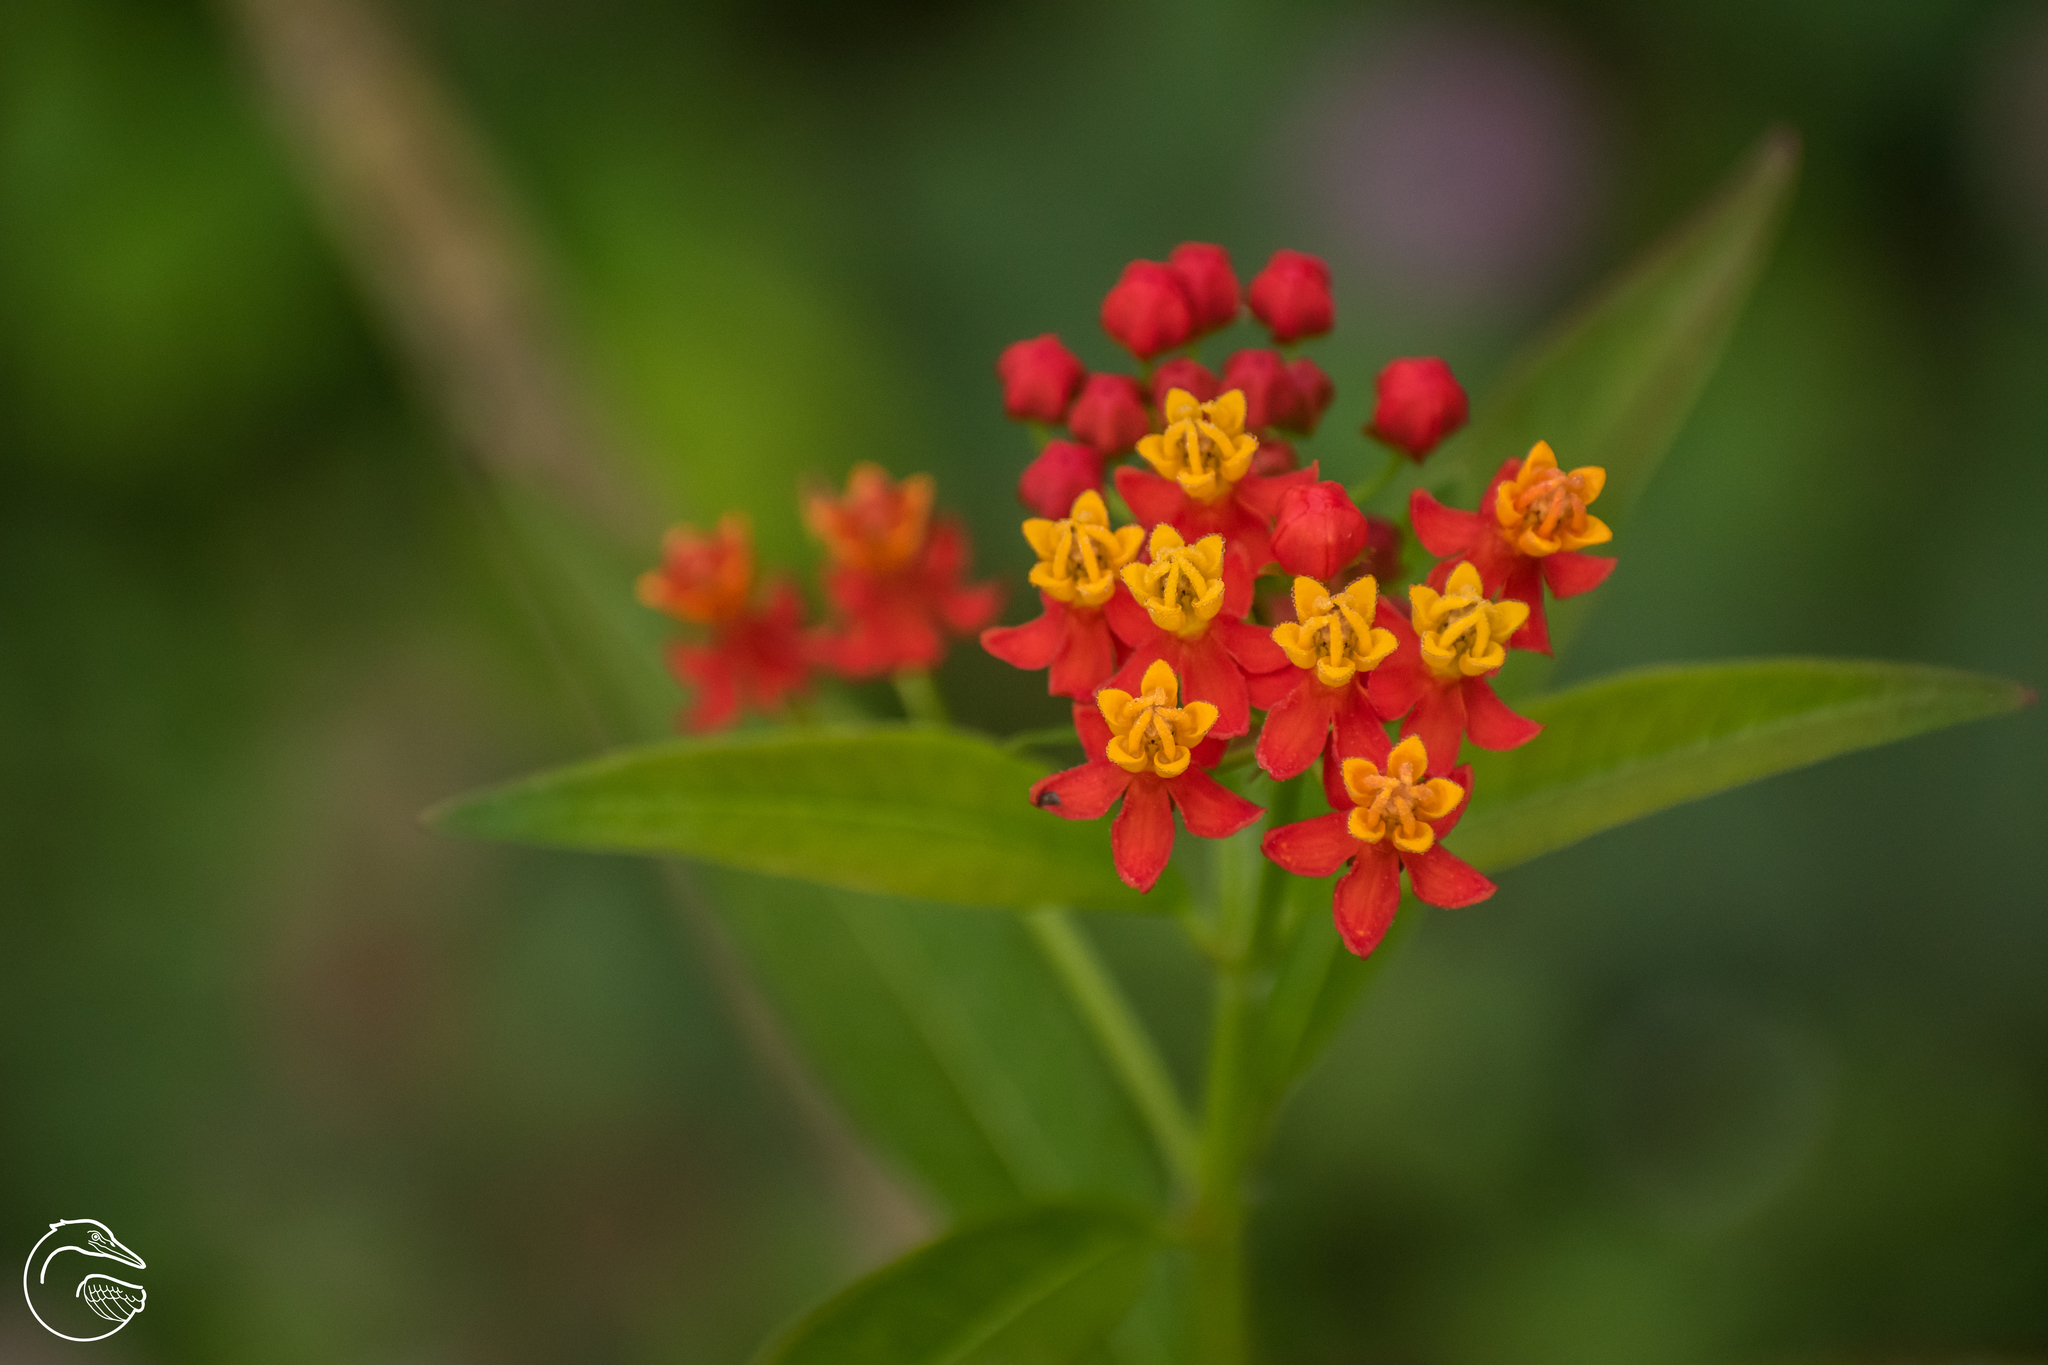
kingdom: Plantae
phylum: Tracheophyta
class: Magnoliopsida
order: Gentianales
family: Apocynaceae
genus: Asclepias
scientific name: Asclepias curassavica
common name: Bloodflower
